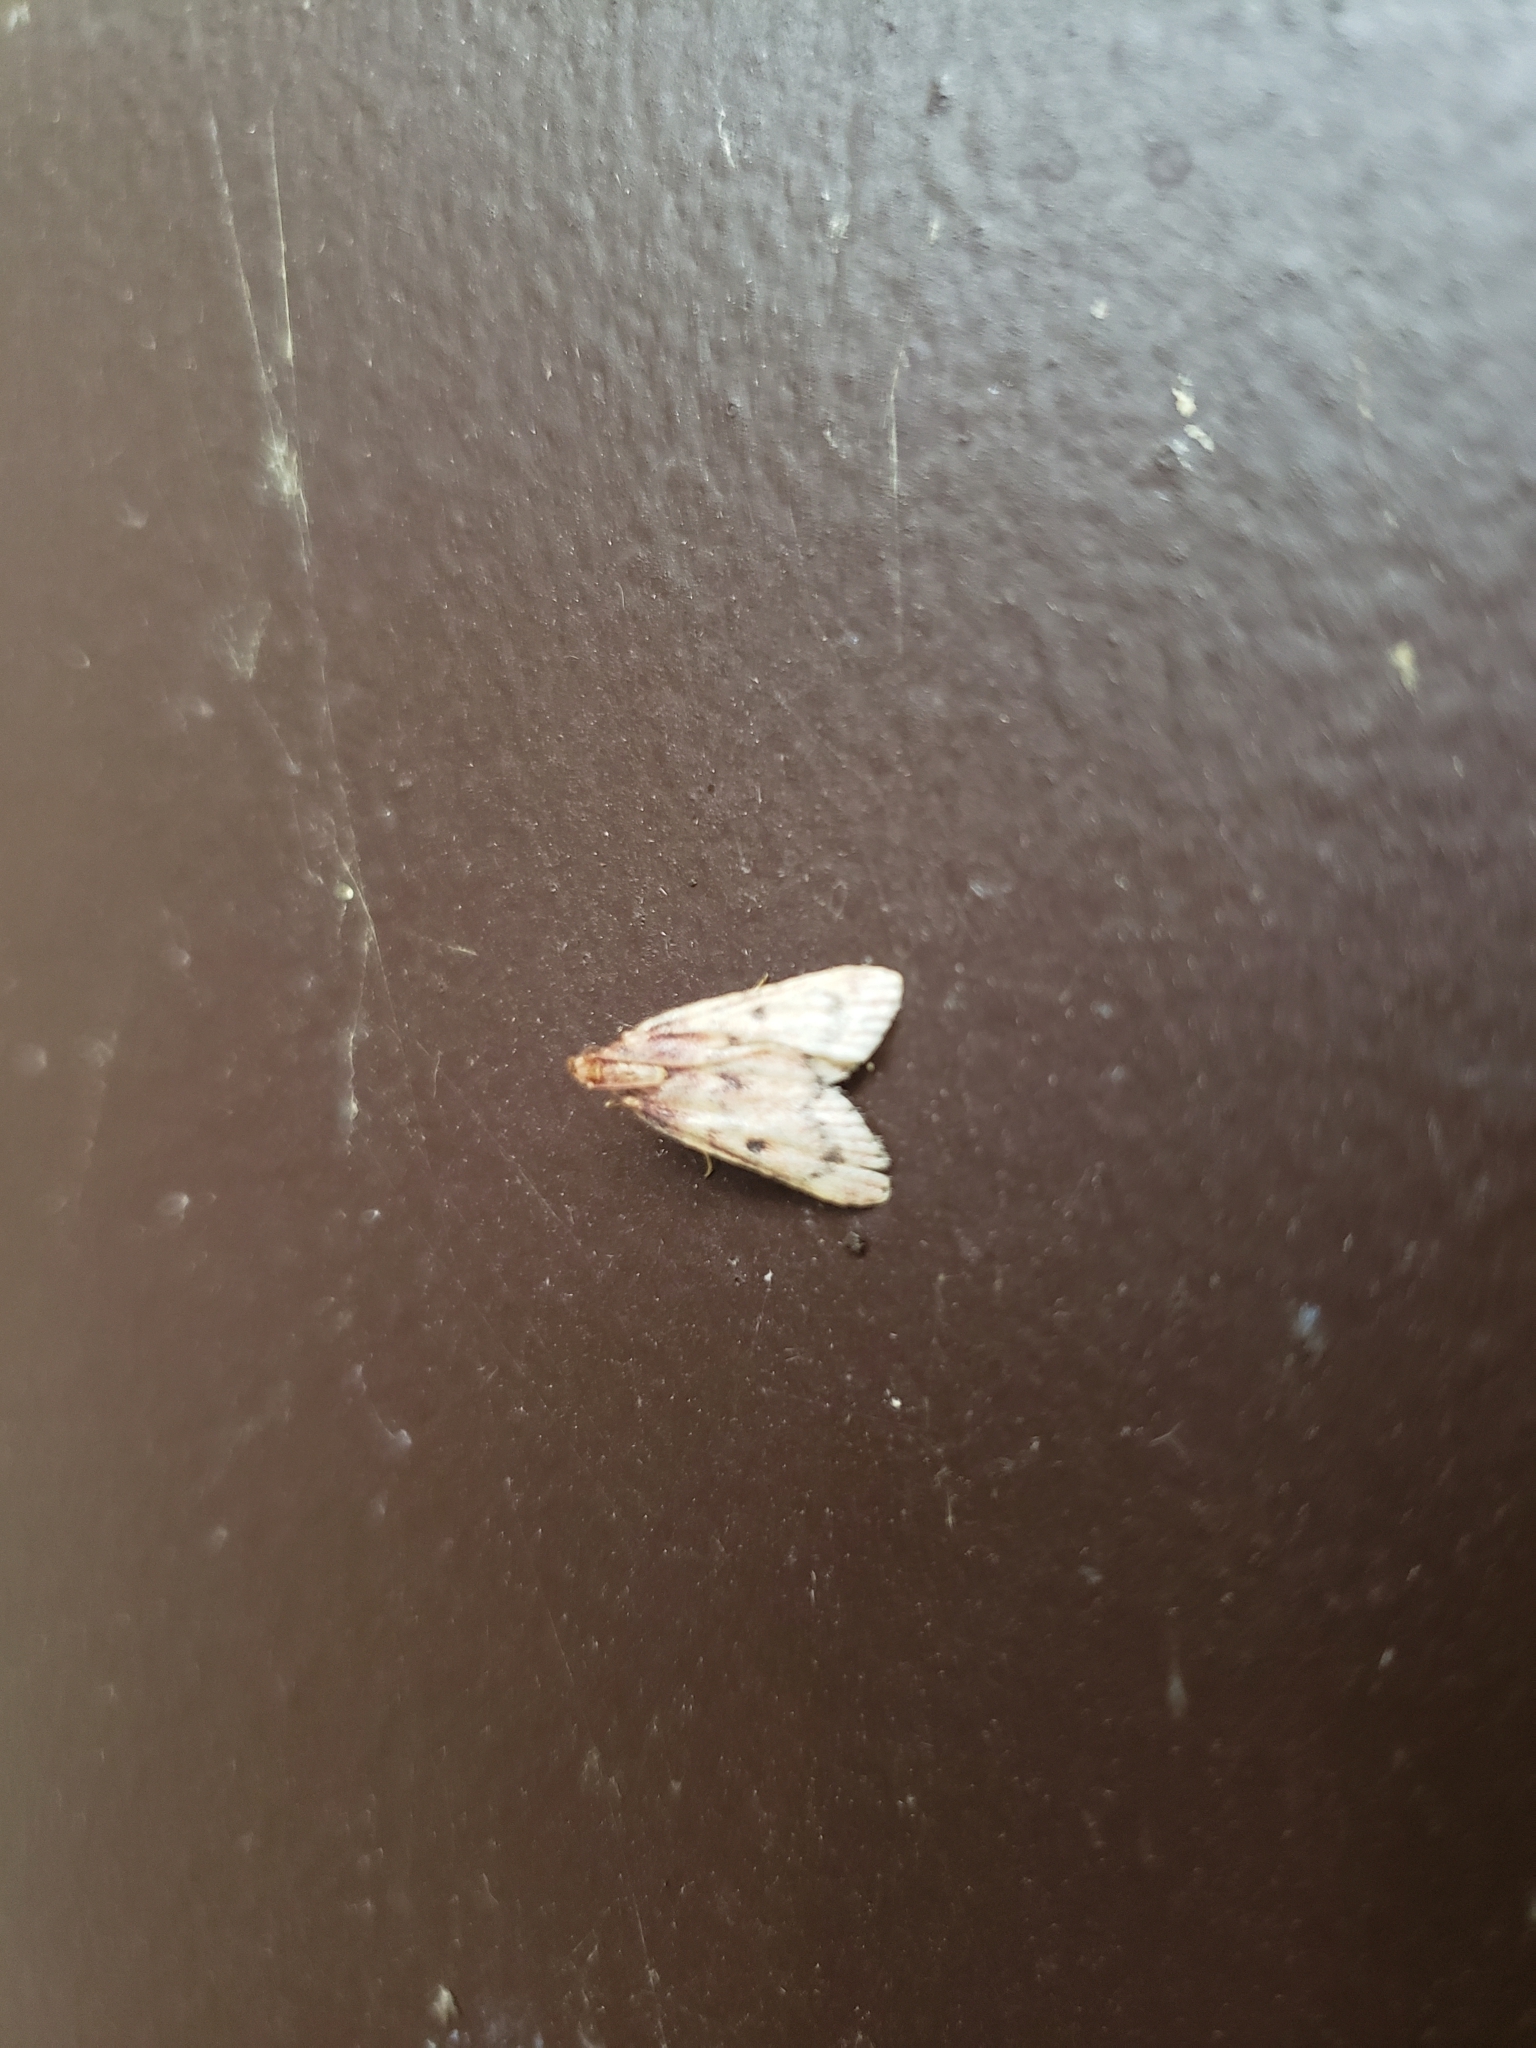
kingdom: Animalia
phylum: Arthropoda
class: Insecta
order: Lepidoptera
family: Pyralidae
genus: Aglossa
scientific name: Aglossa disciferalis
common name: Pink-masked pyralid moth
